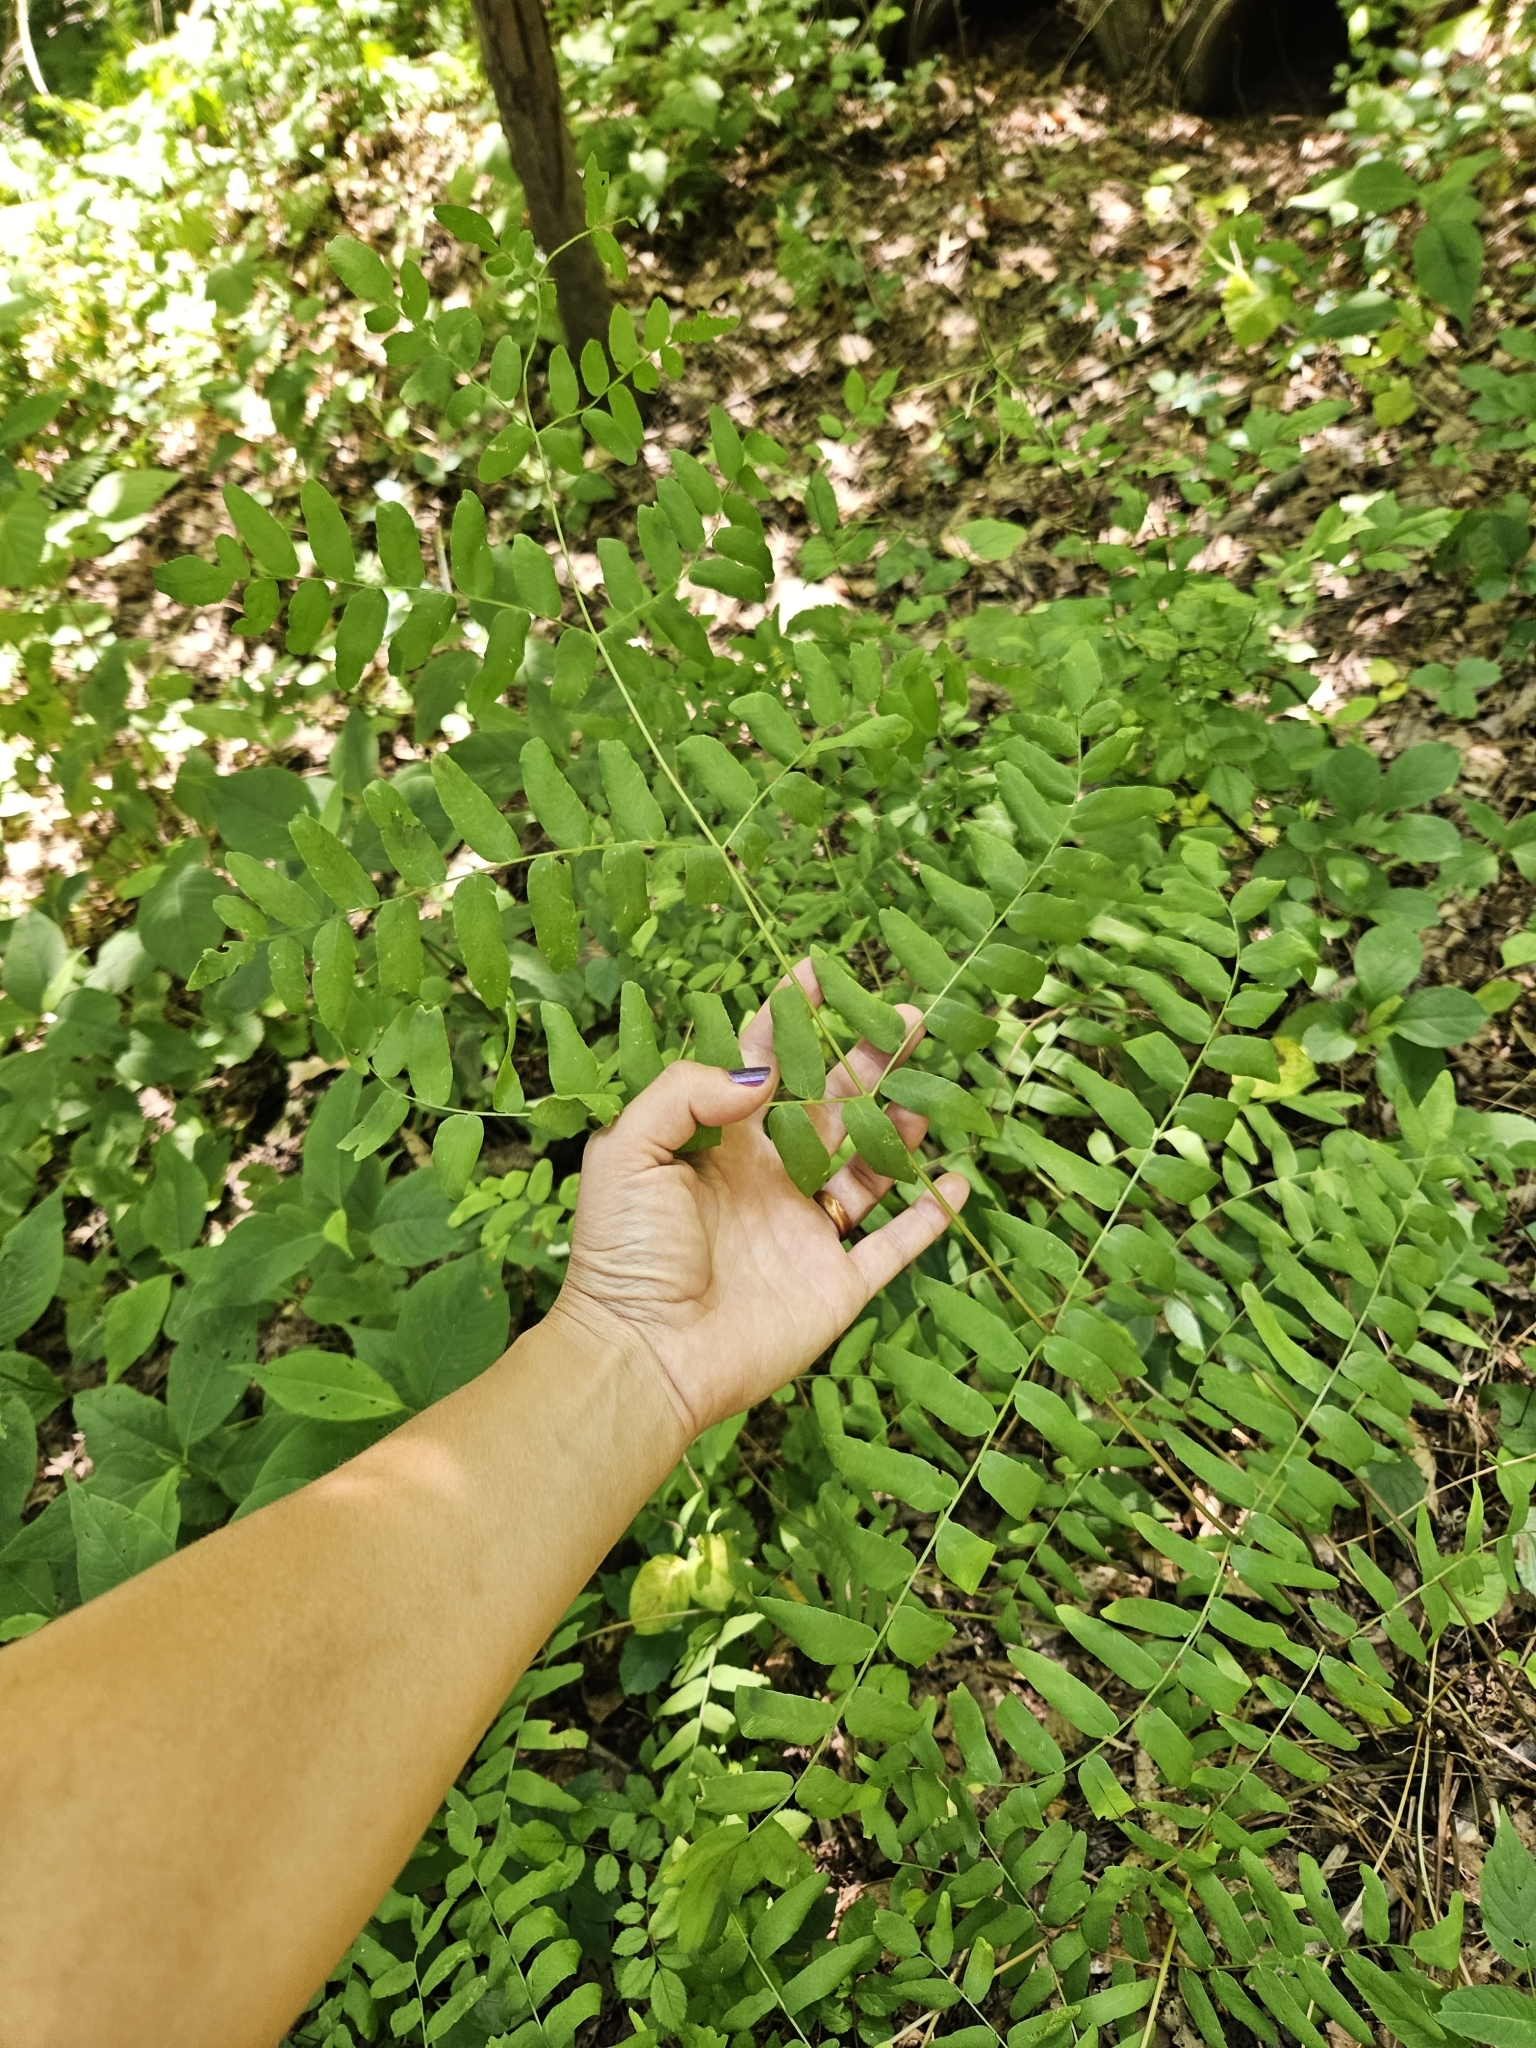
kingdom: Plantae
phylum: Tracheophyta
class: Polypodiopsida
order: Osmundales
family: Osmundaceae
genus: Osmunda
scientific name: Osmunda spectabilis
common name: American royal fern
